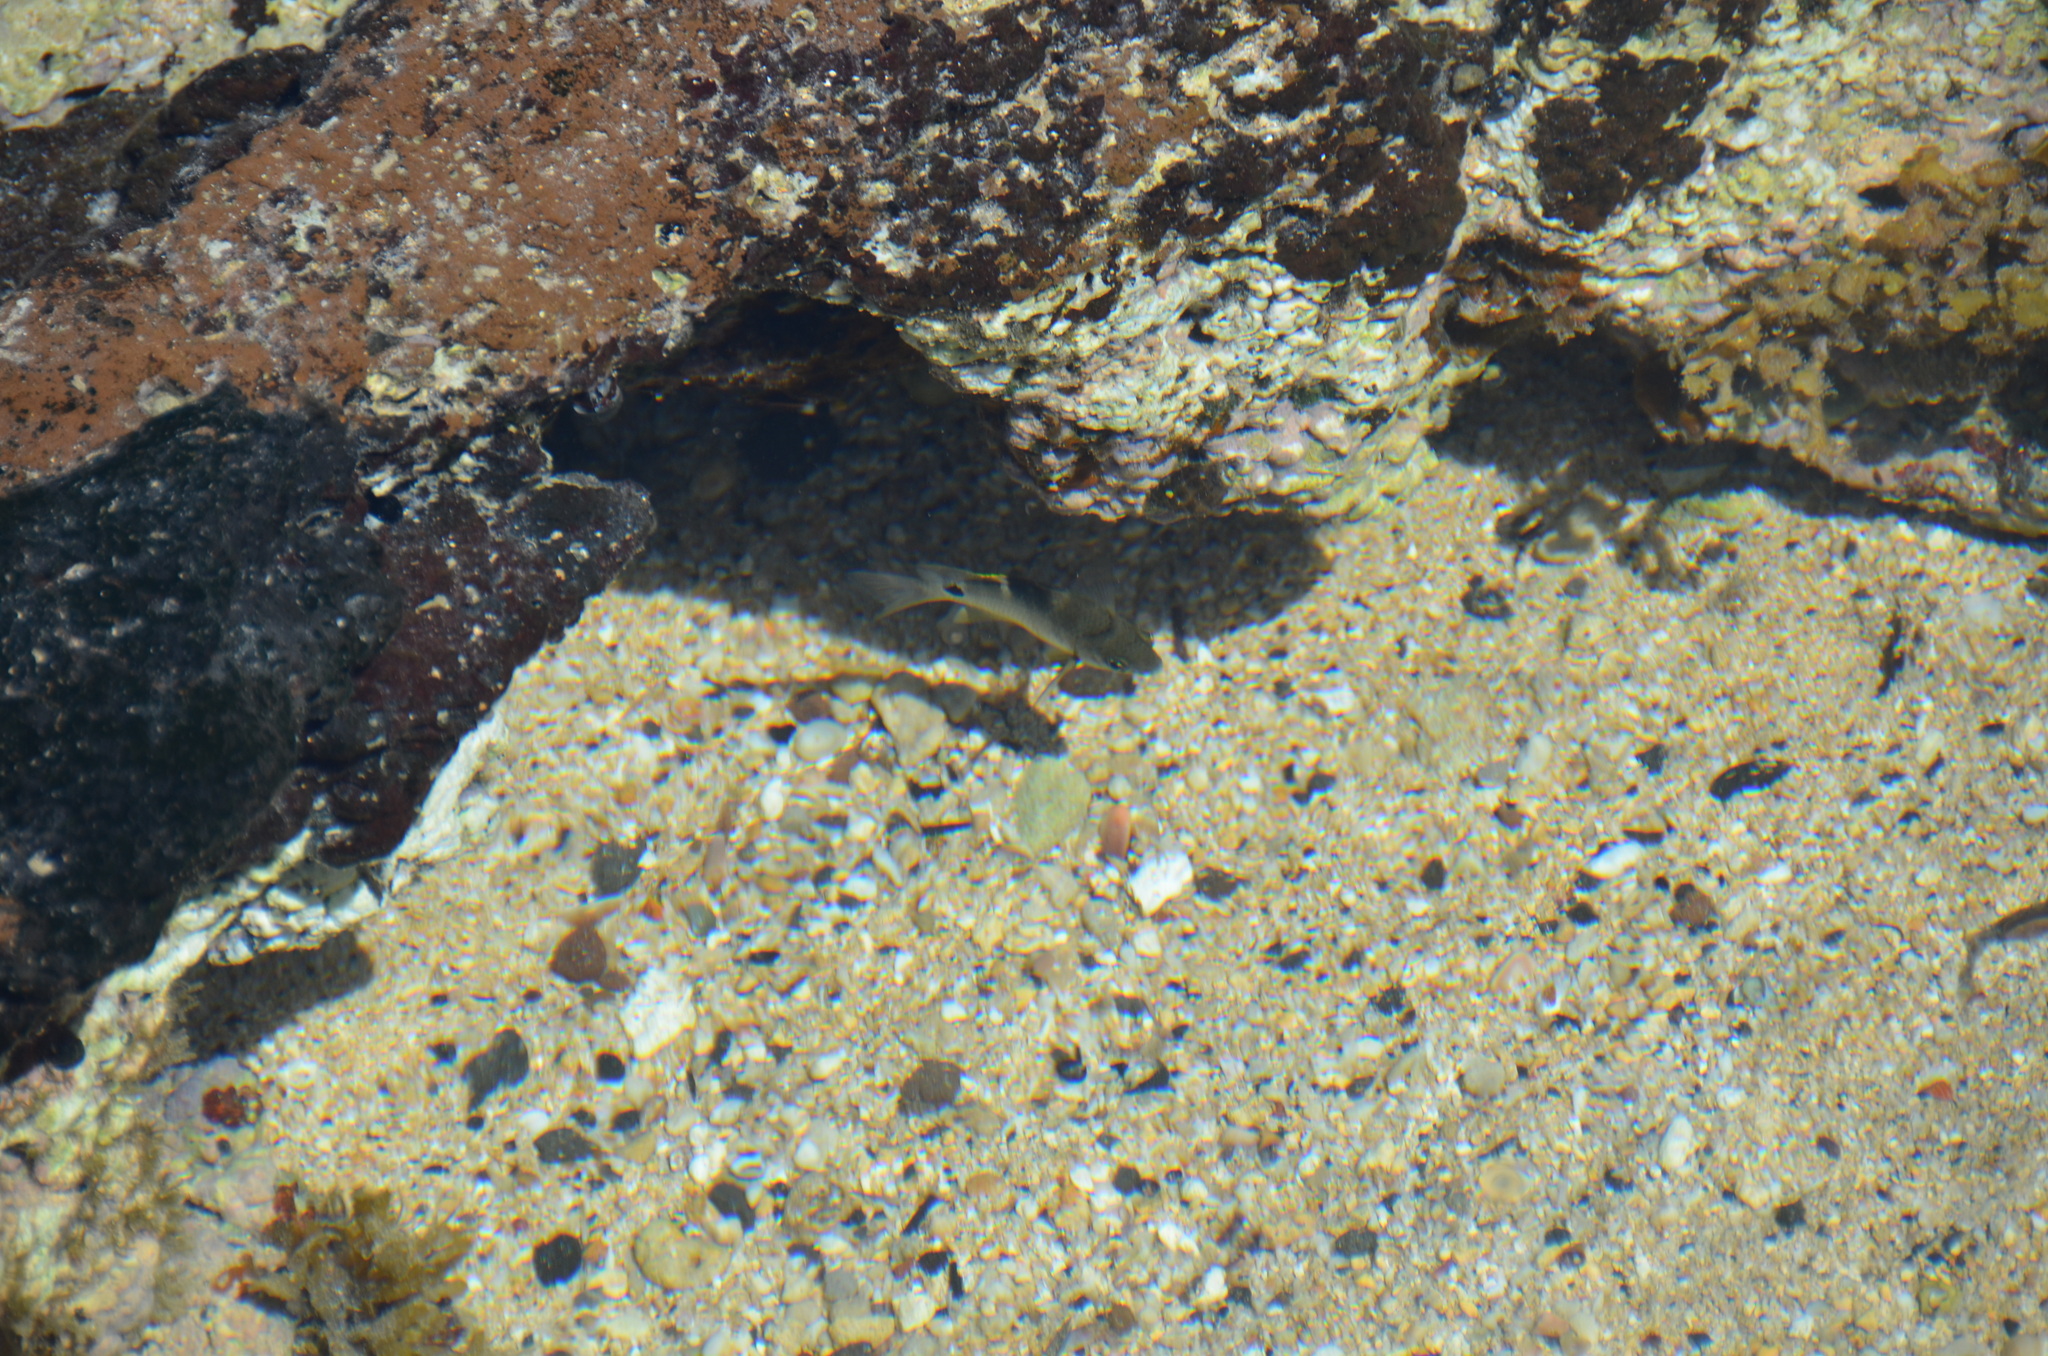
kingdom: Animalia
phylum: Chordata
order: Perciformes
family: Pomacentridae
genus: Abudefduf
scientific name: Abudefduf sordidus
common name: Blackspot sergeant
